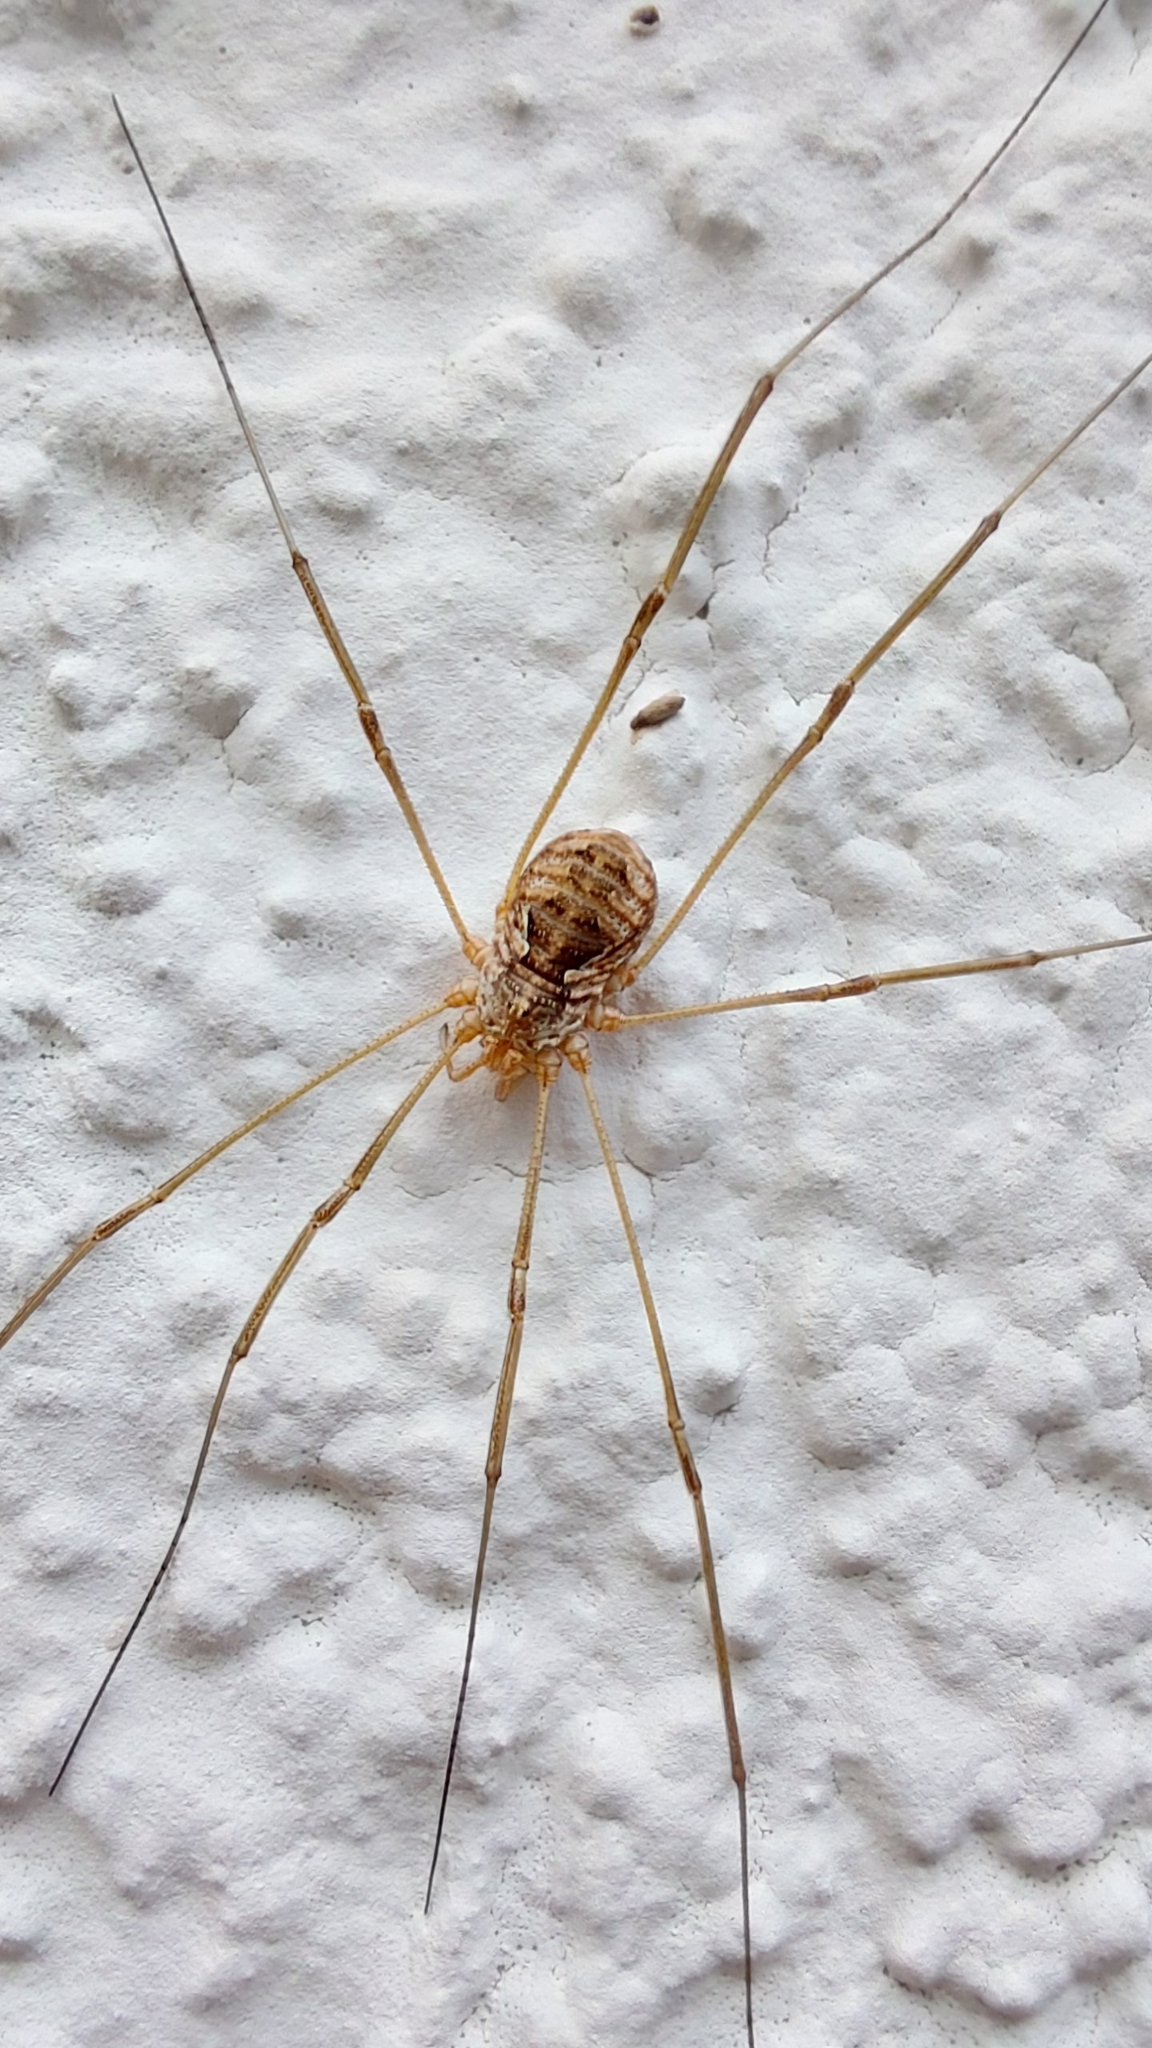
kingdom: Animalia
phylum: Arthropoda
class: Arachnida
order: Opiliones
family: Phalangiidae
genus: Phalangium
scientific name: Phalangium opilio
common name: Daddy longleg
